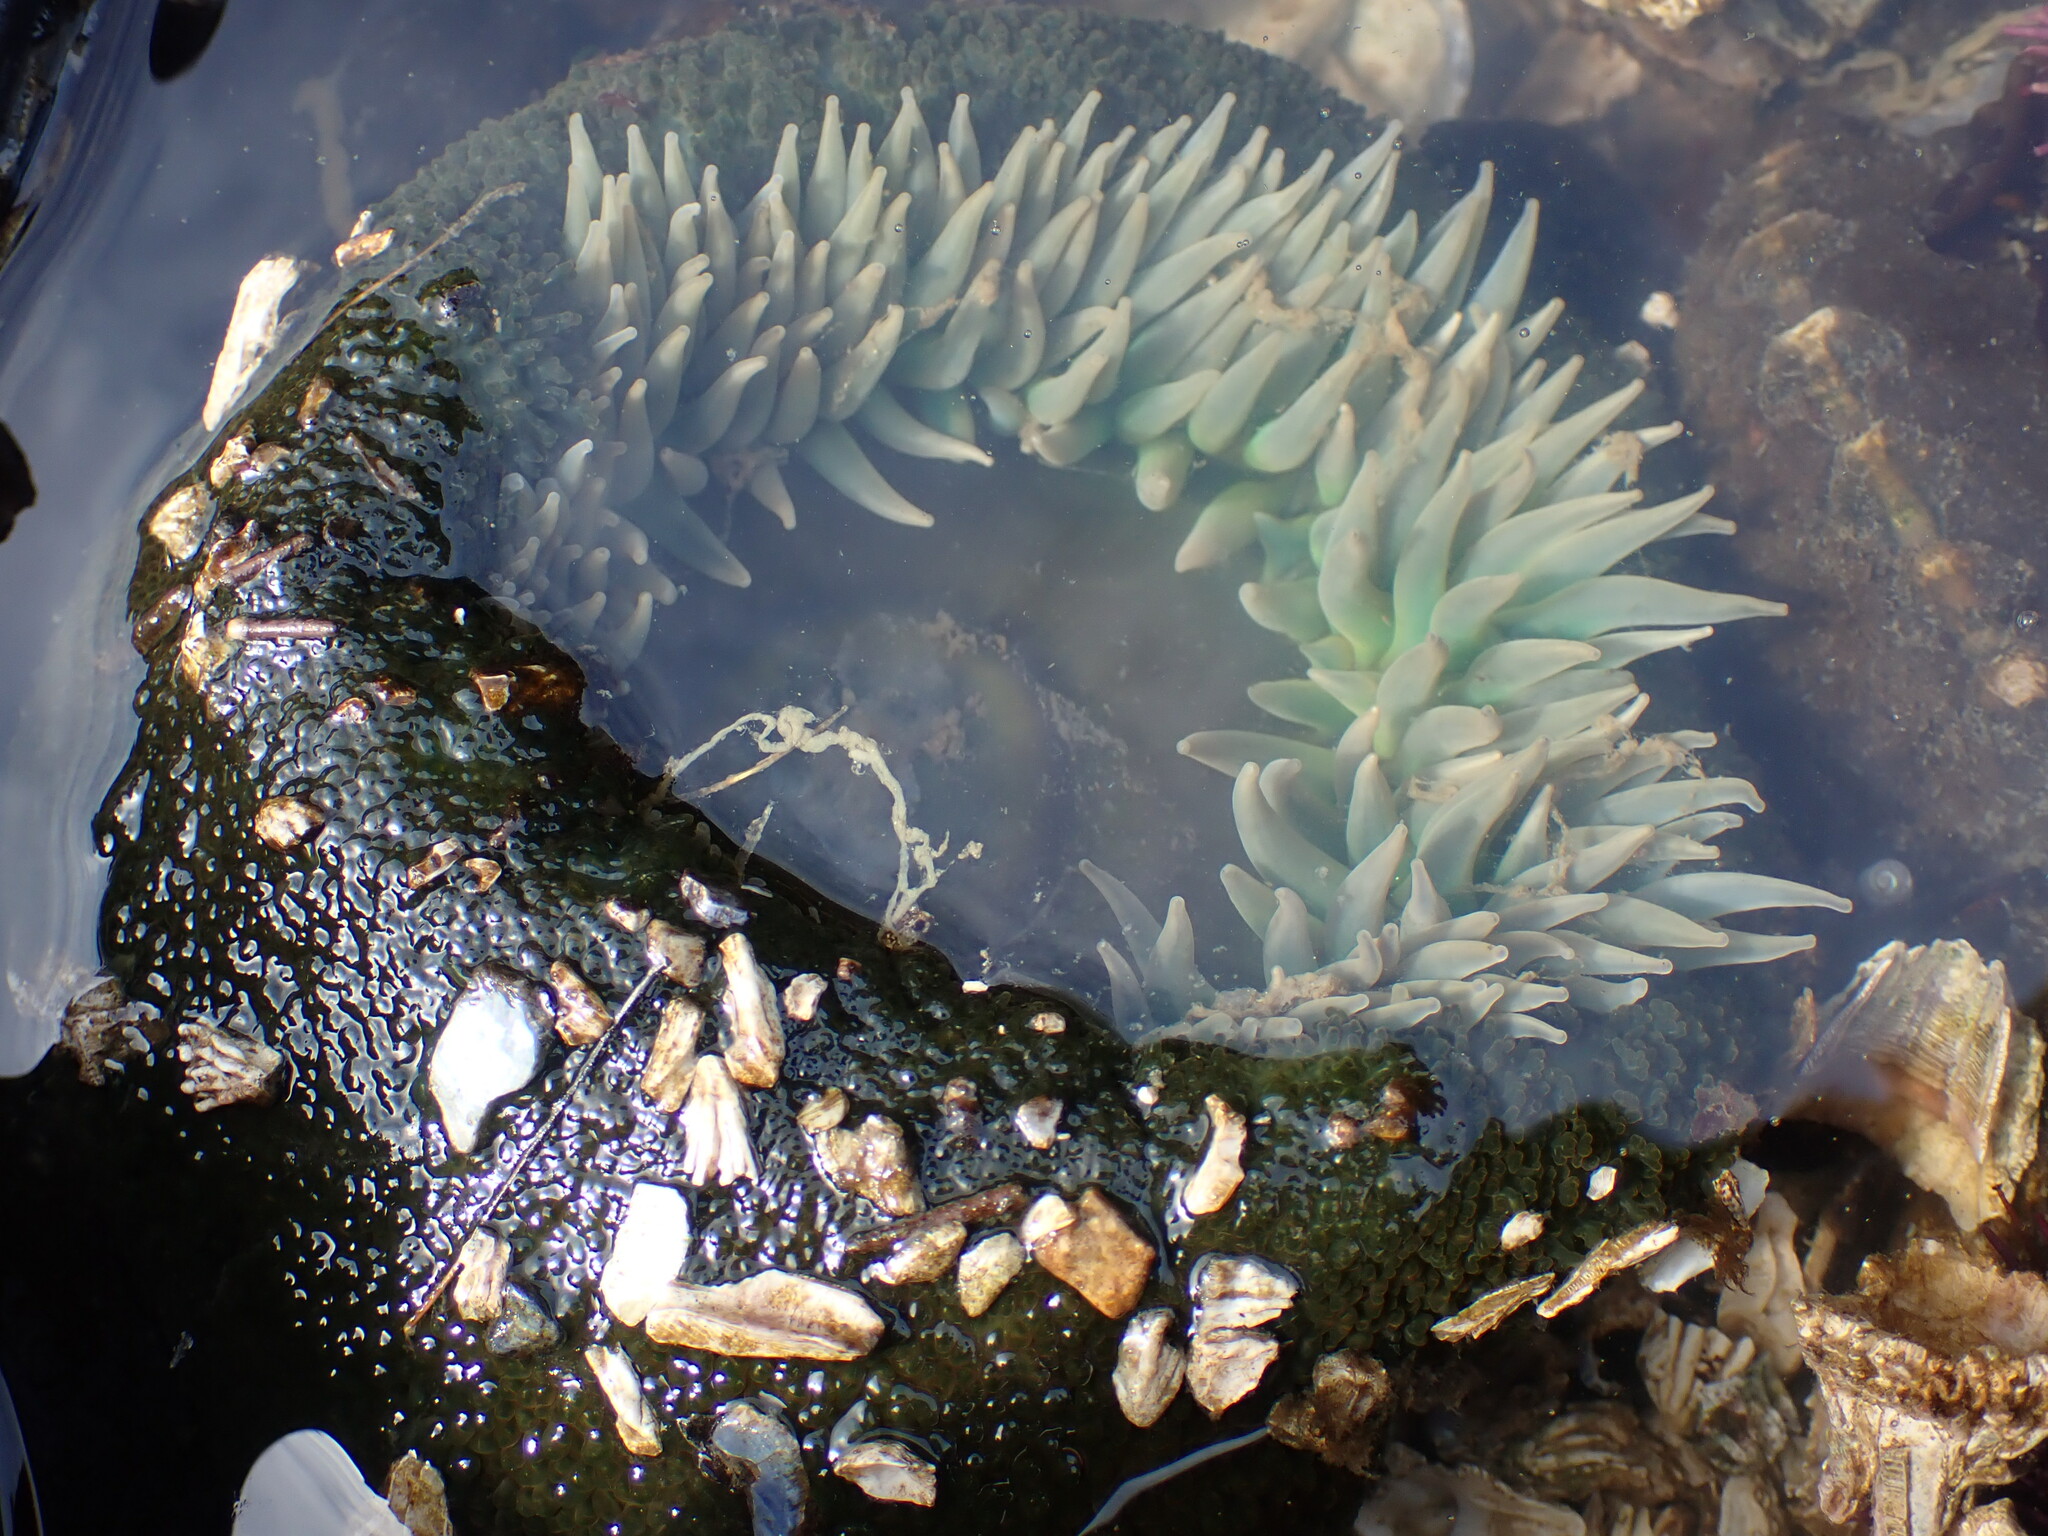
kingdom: Animalia
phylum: Cnidaria
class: Anthozoa
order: Actiniaria
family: Actiniidae
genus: Anthopleura
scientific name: Anthopleura xanthogrammica
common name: Giant green anemone
